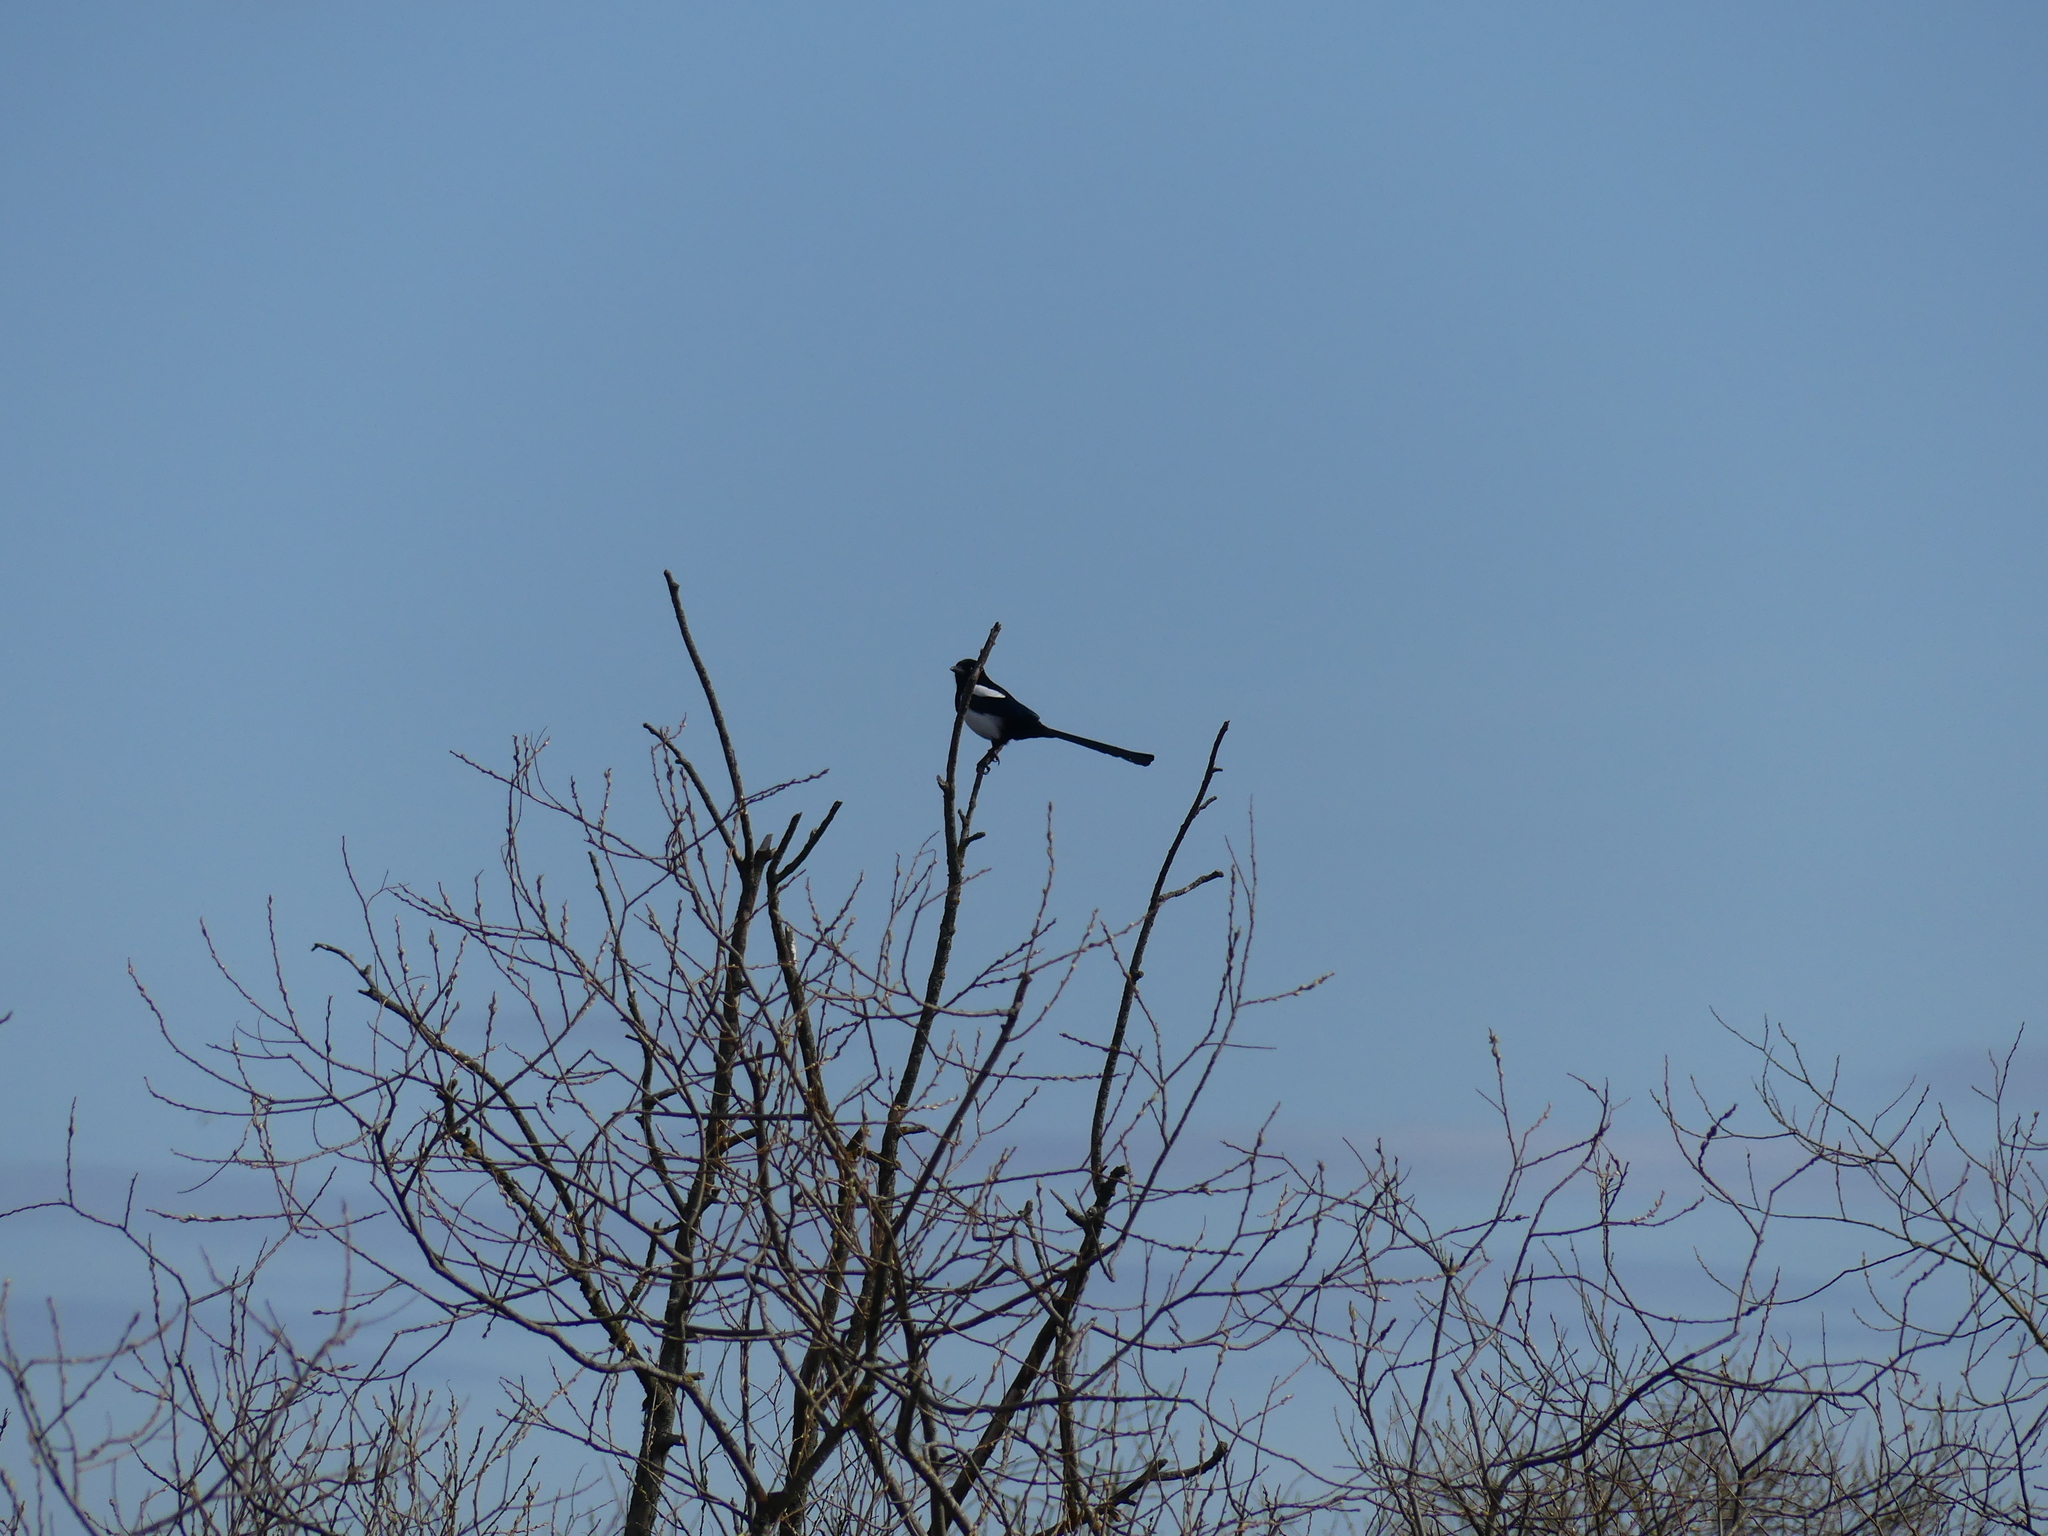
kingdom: Animalia
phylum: Chordata
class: Aves
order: Passeriformes
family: Corvidae
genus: Pica
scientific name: Pica pica
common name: Eurasian magpie
